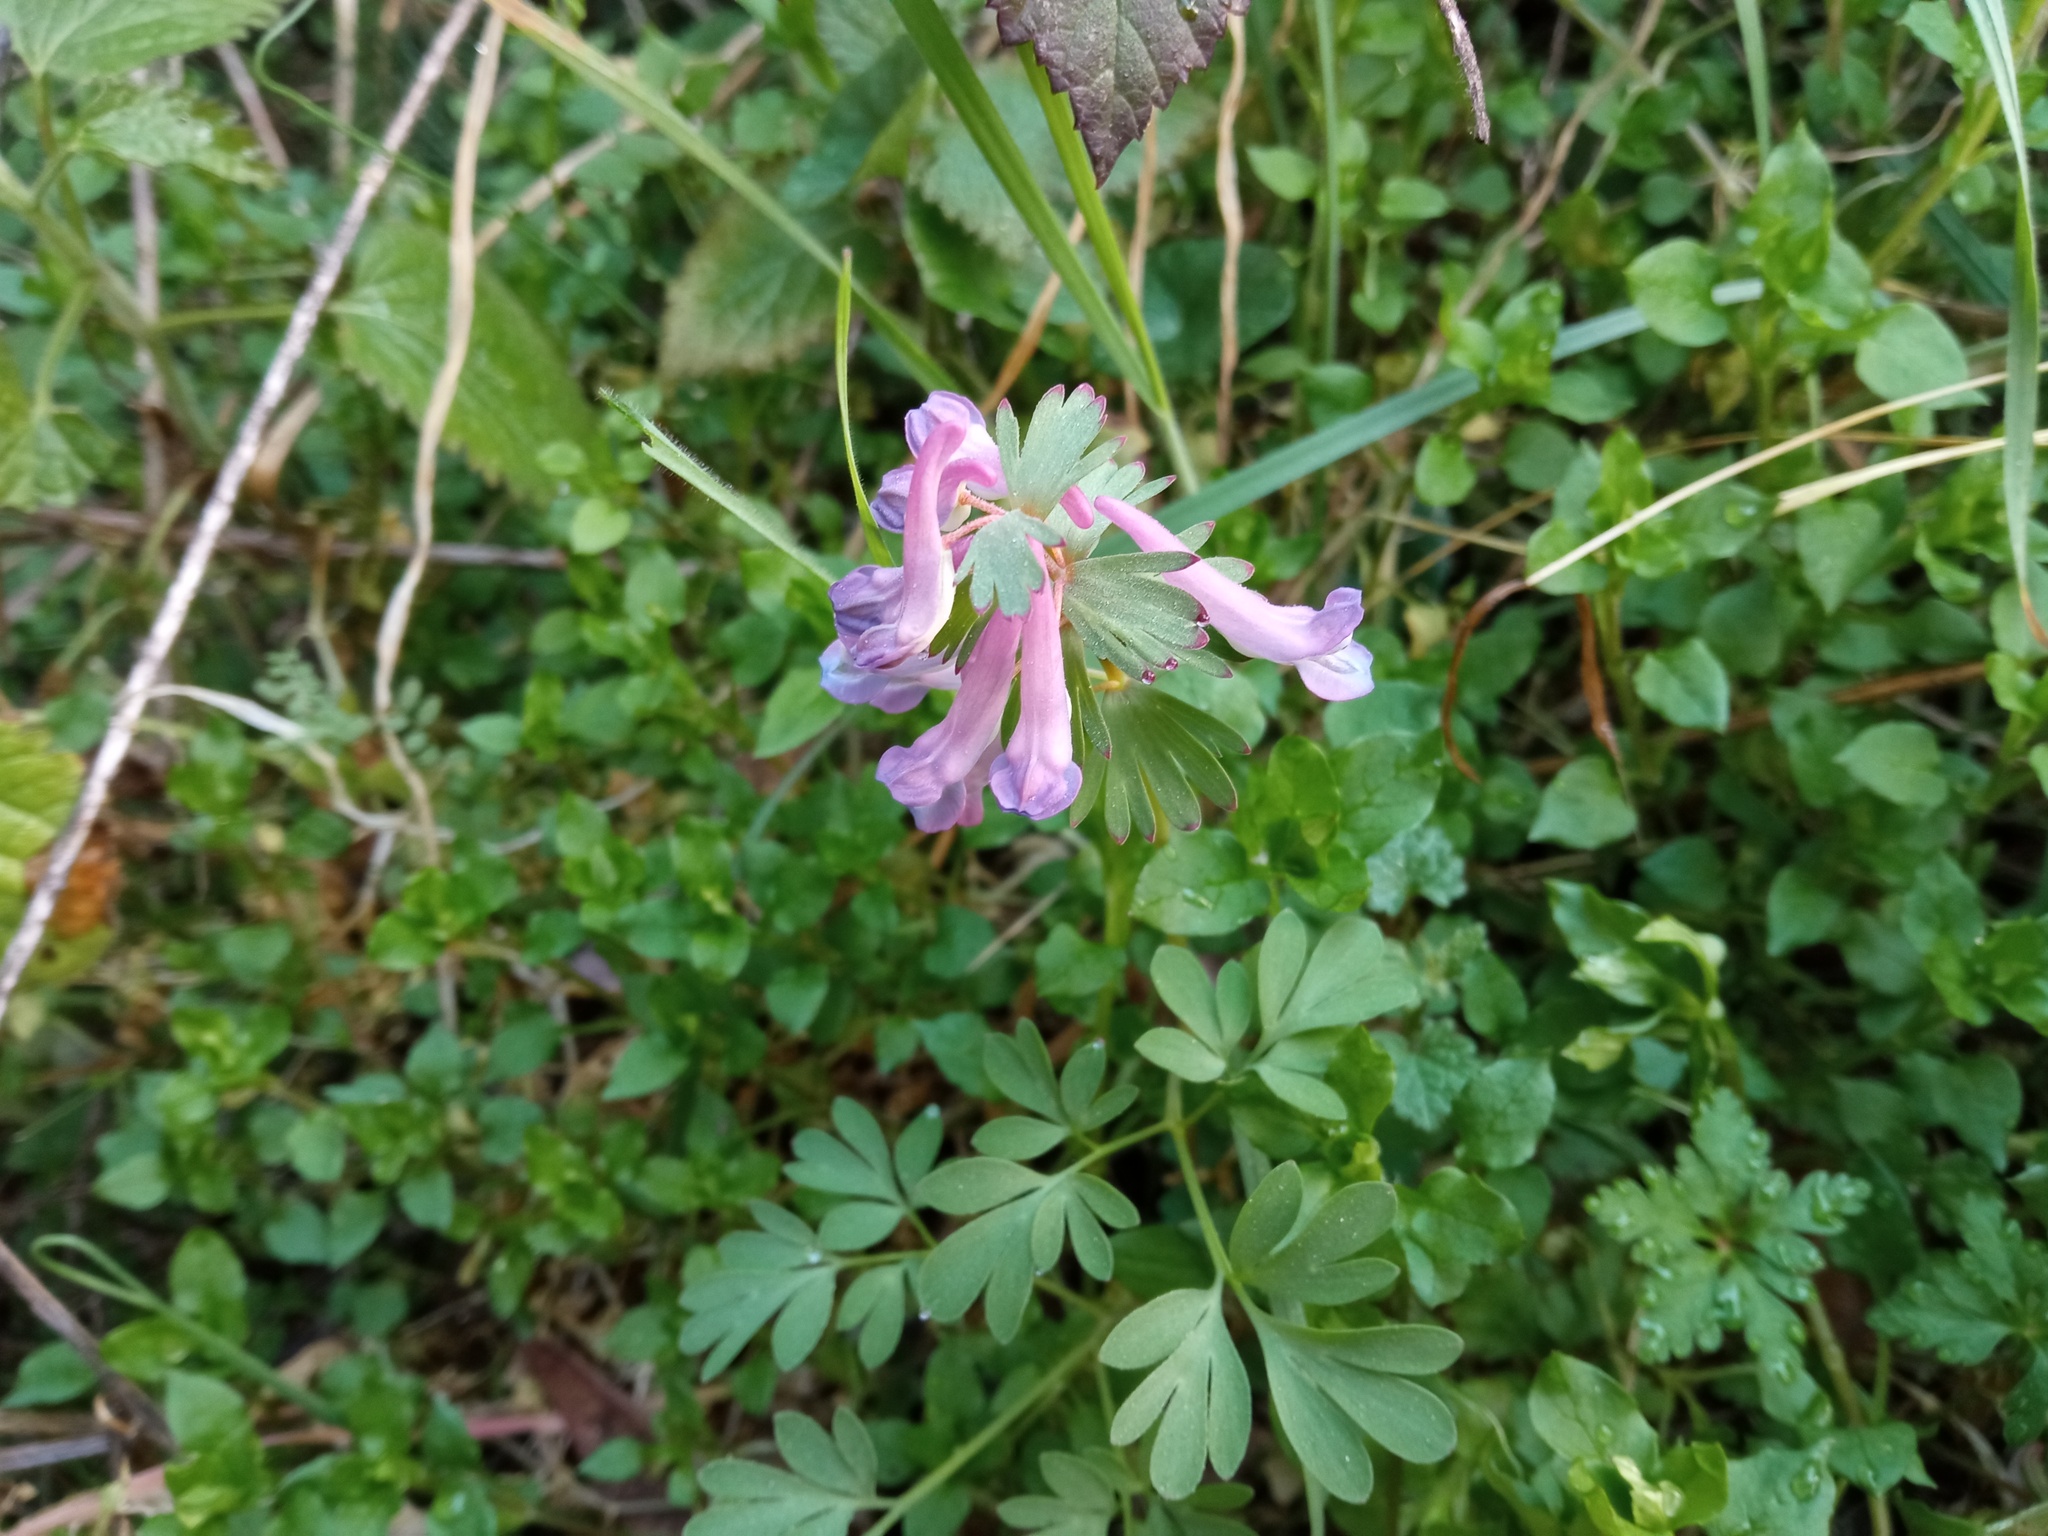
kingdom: Plantae
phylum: Tracheophyta
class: Magnoliopsida
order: Ranunculales
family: Papaveraceae
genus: Corydalis
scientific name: Corydalis solida
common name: Bird-in-a-bush
